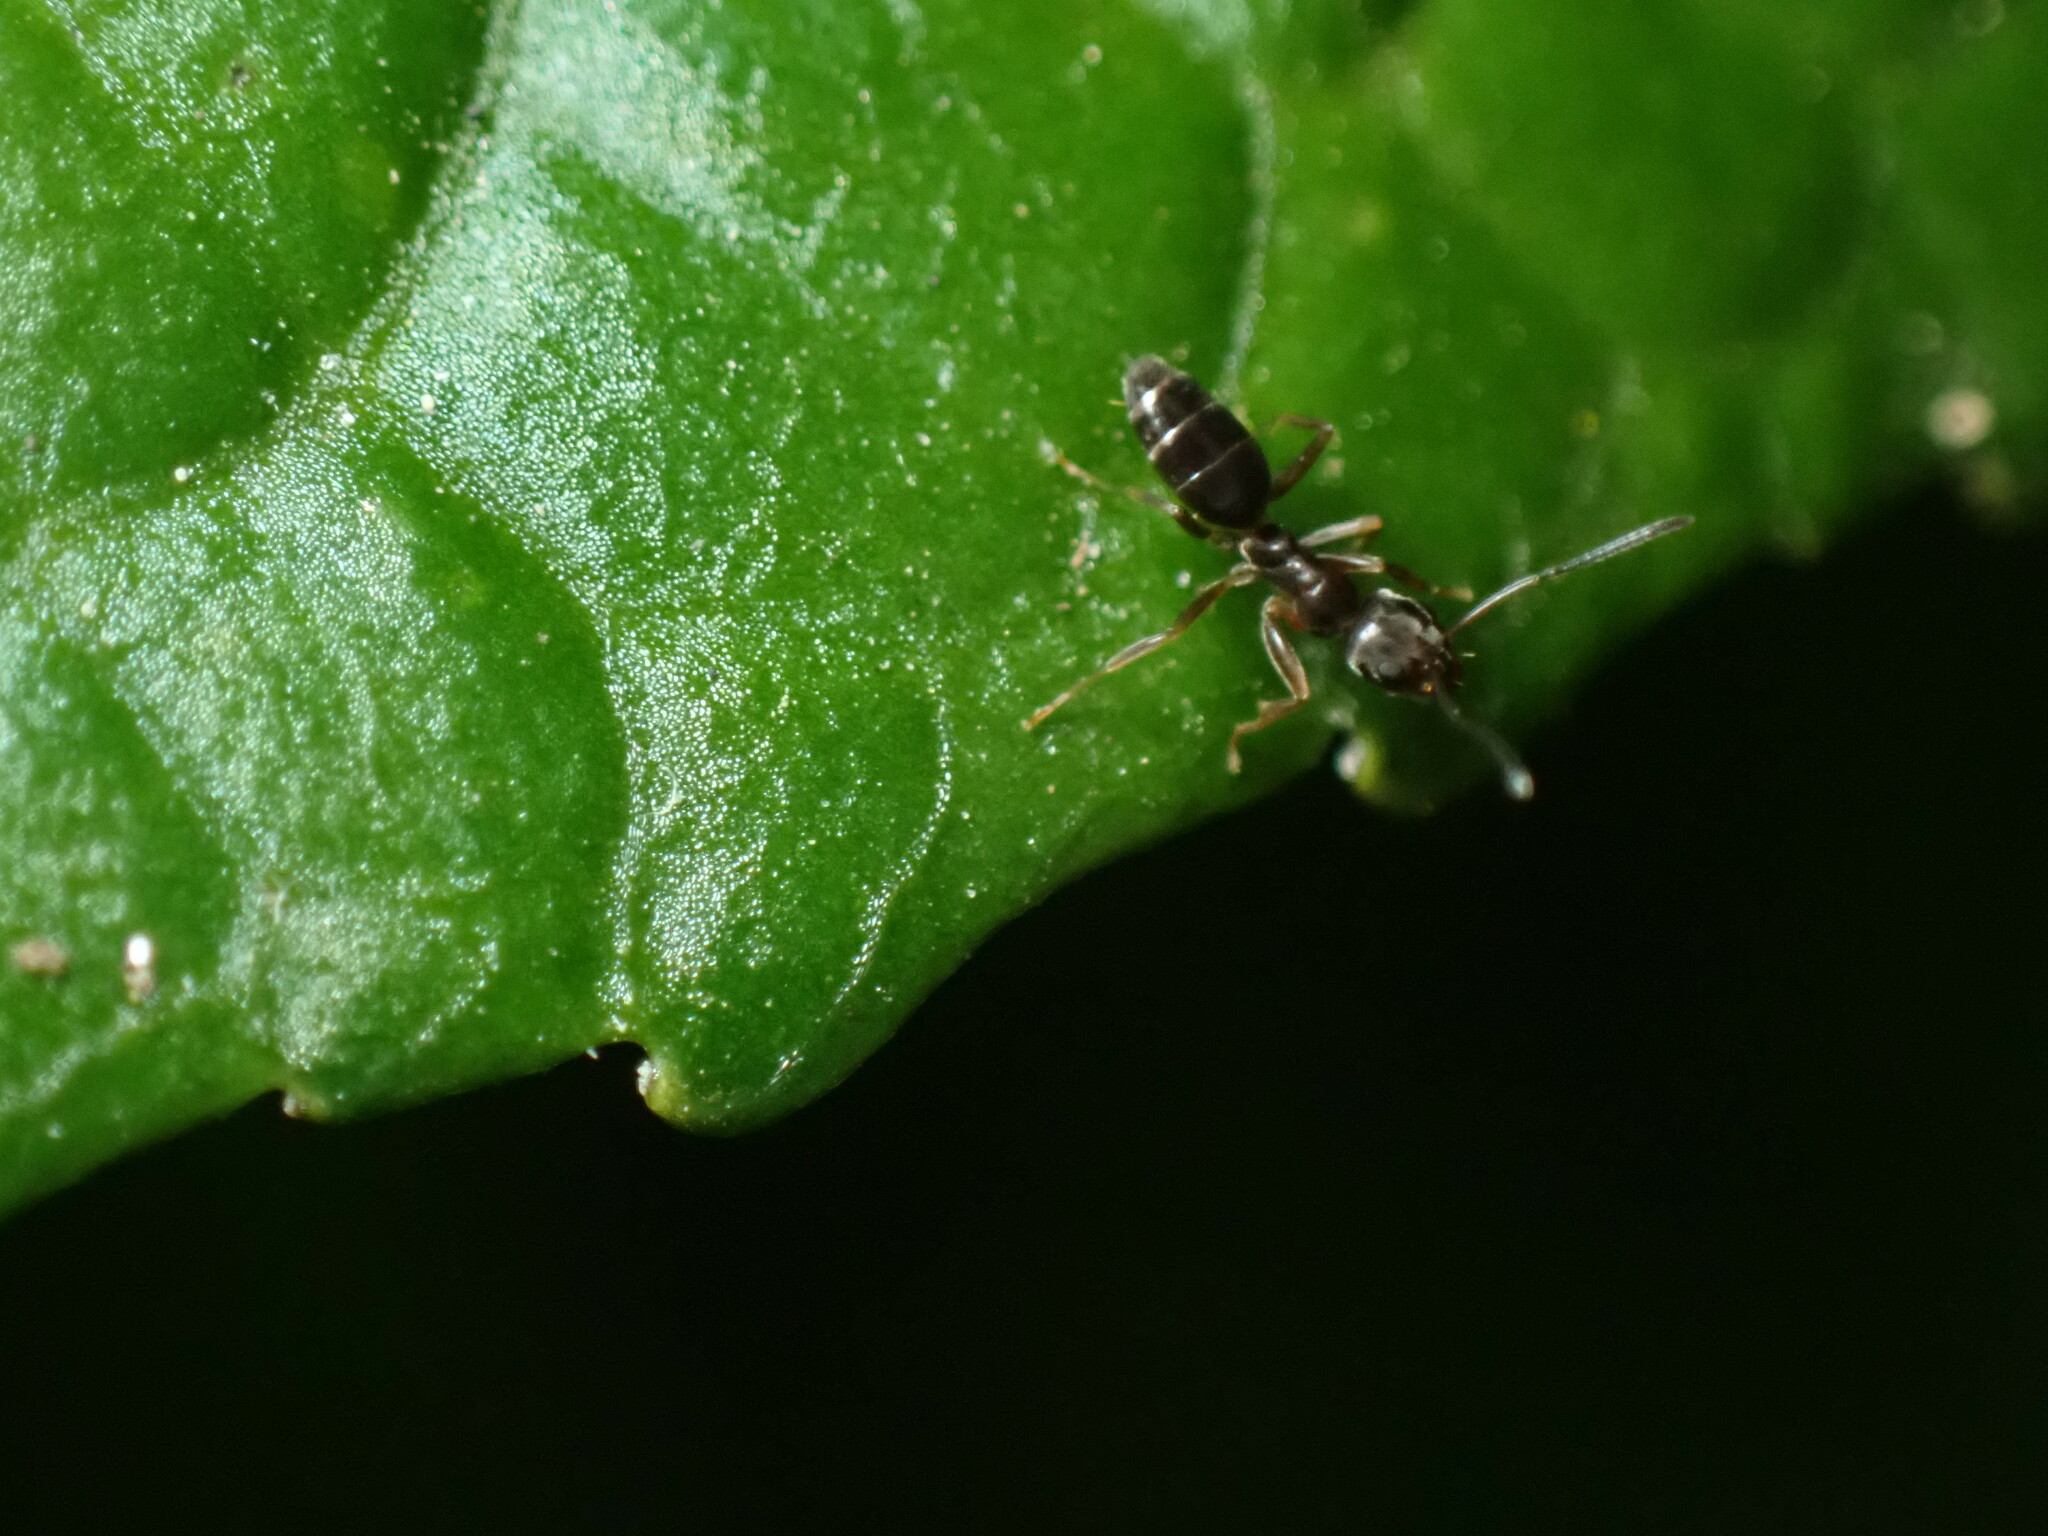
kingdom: Animalia
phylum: Arthropoda
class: Insecta
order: Hymenoptera
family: Formicidae
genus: Tapinoma
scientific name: Tapinoma sessile
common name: Odorous house ant
